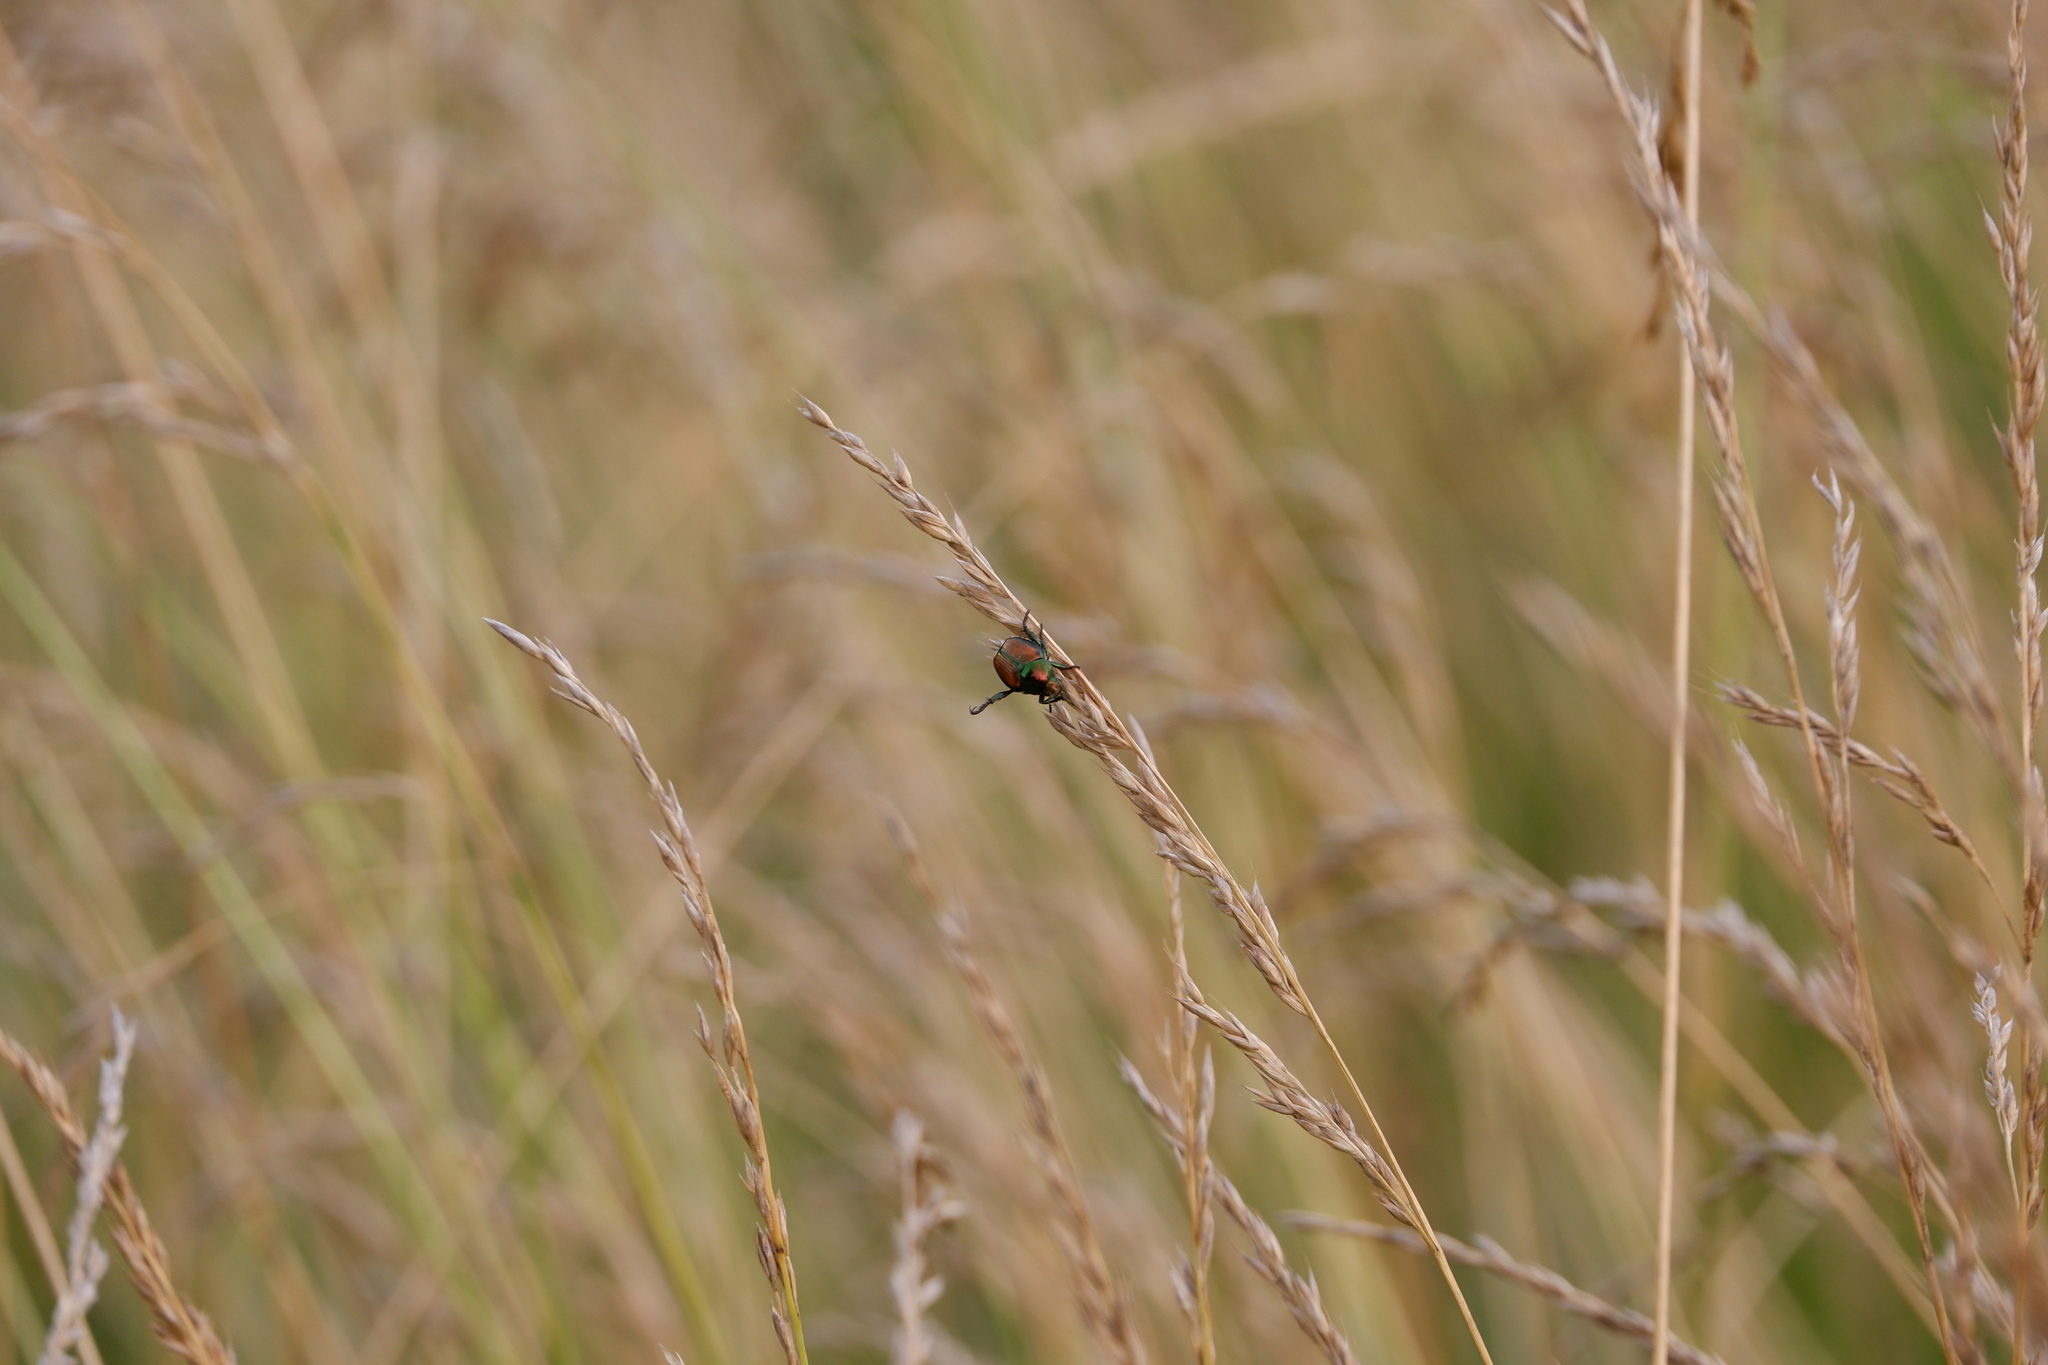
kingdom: Animalia
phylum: Arthropoda
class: Insecta
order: Coleoptera
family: Scarabaeidae
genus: Popillia
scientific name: Popillia japonica
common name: Japanese beetle
